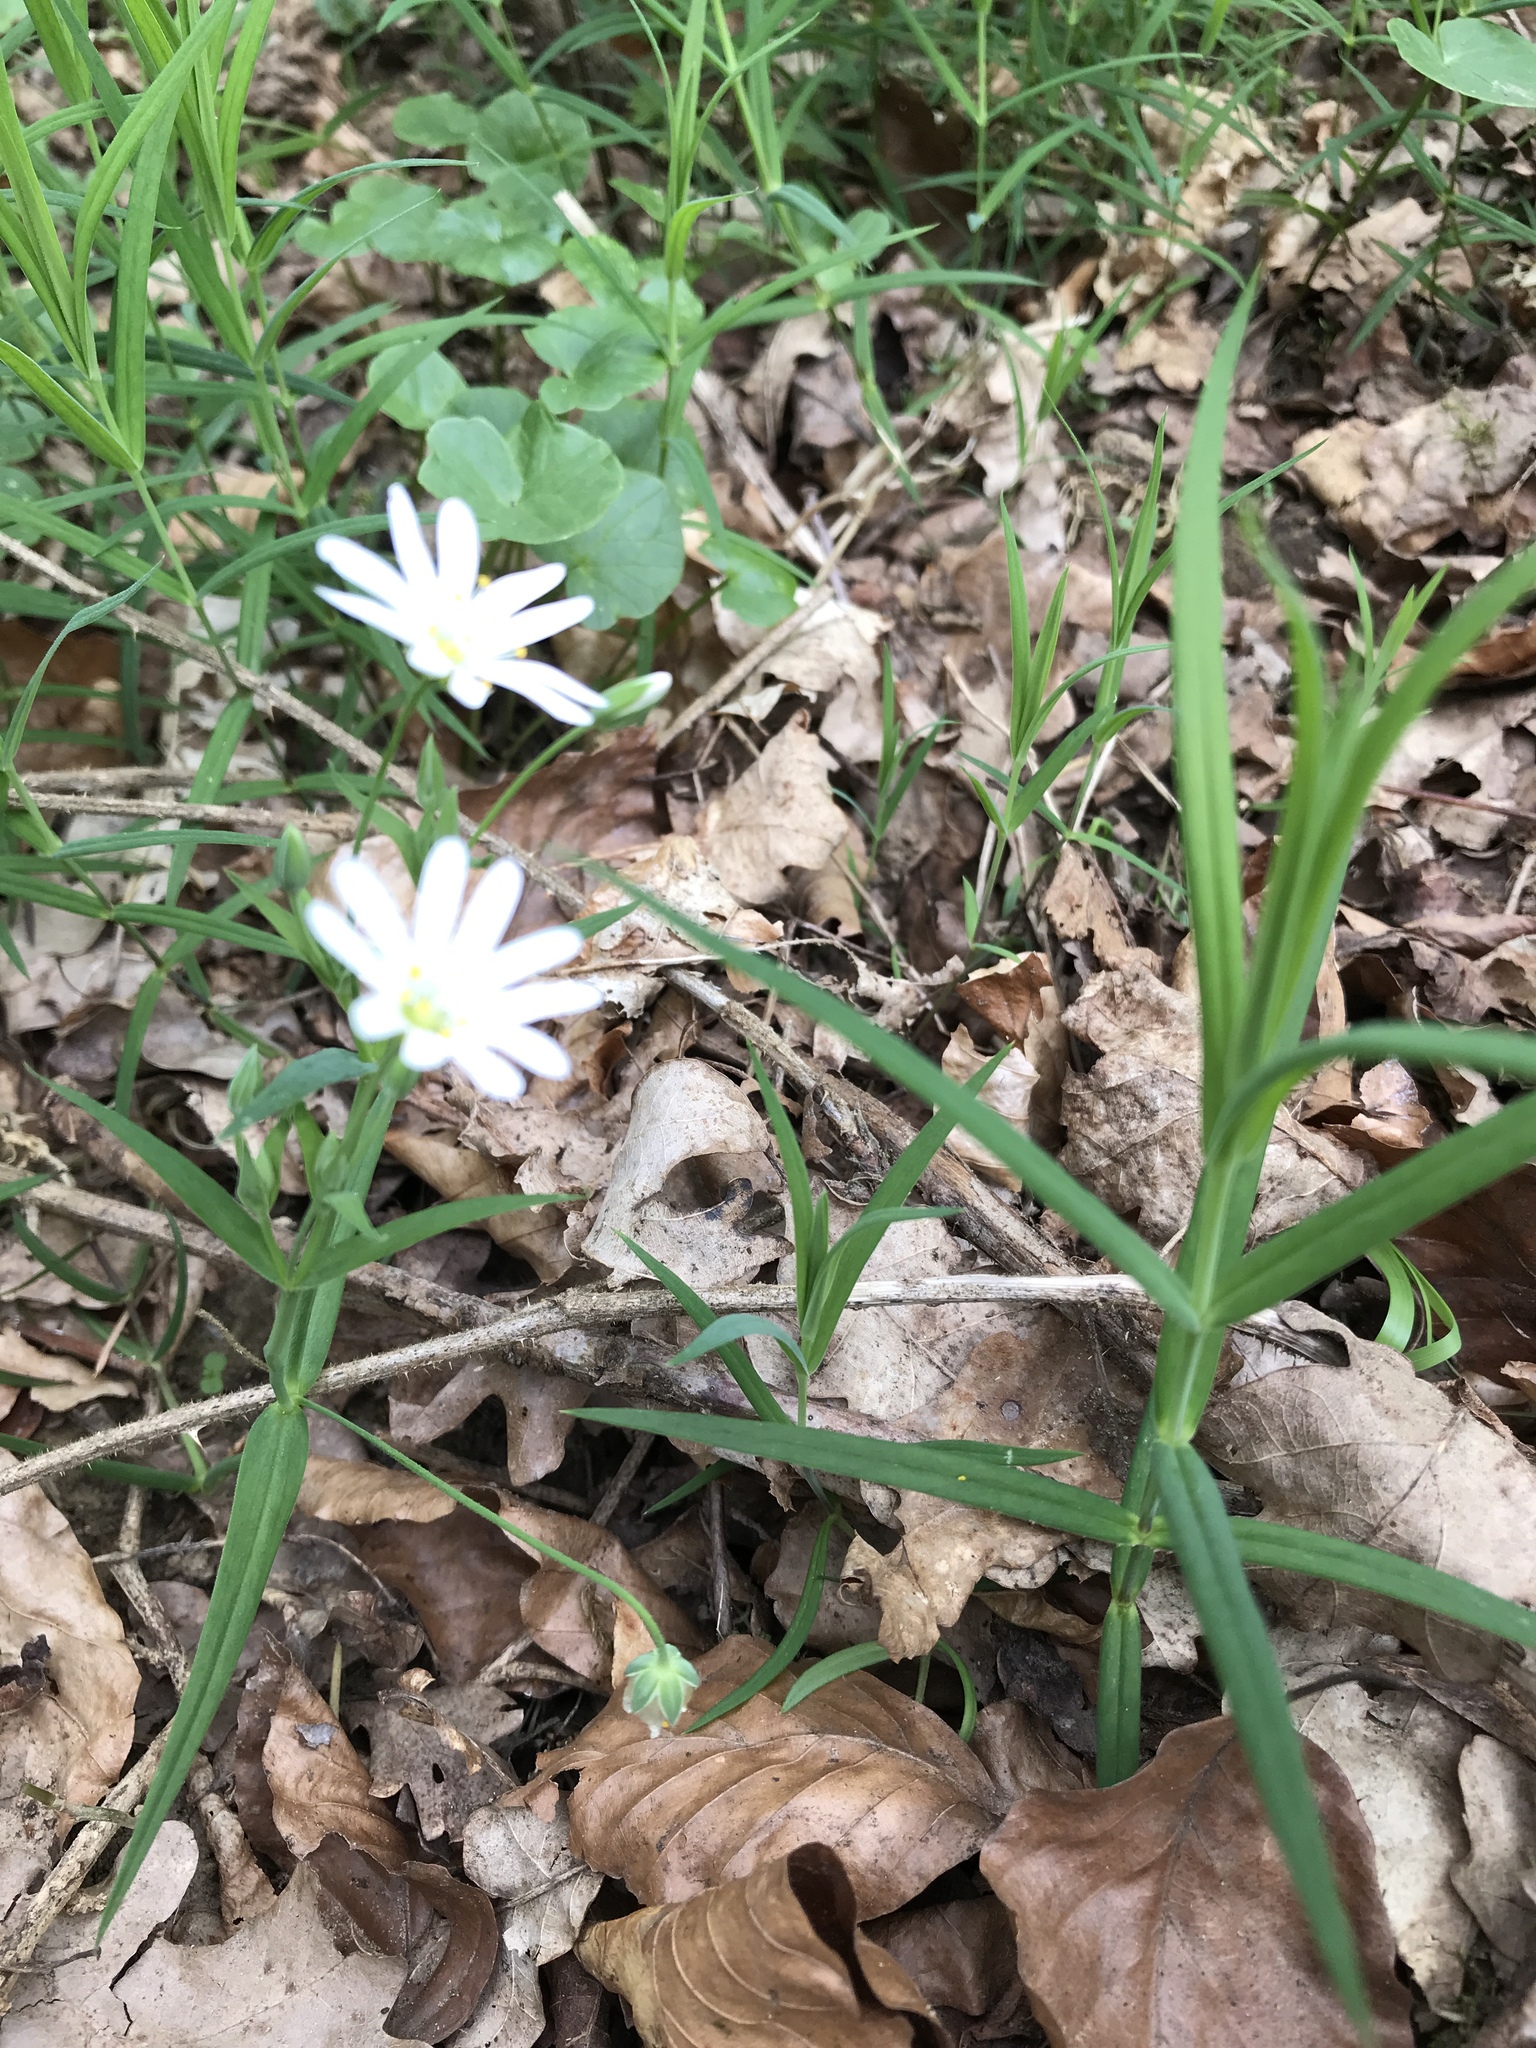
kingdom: Plantae
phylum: Tracheophyta
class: Magnoliopsida
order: Caryophyllales
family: Caryophyllaceae
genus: Rabelera
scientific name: Rabelera holostea
